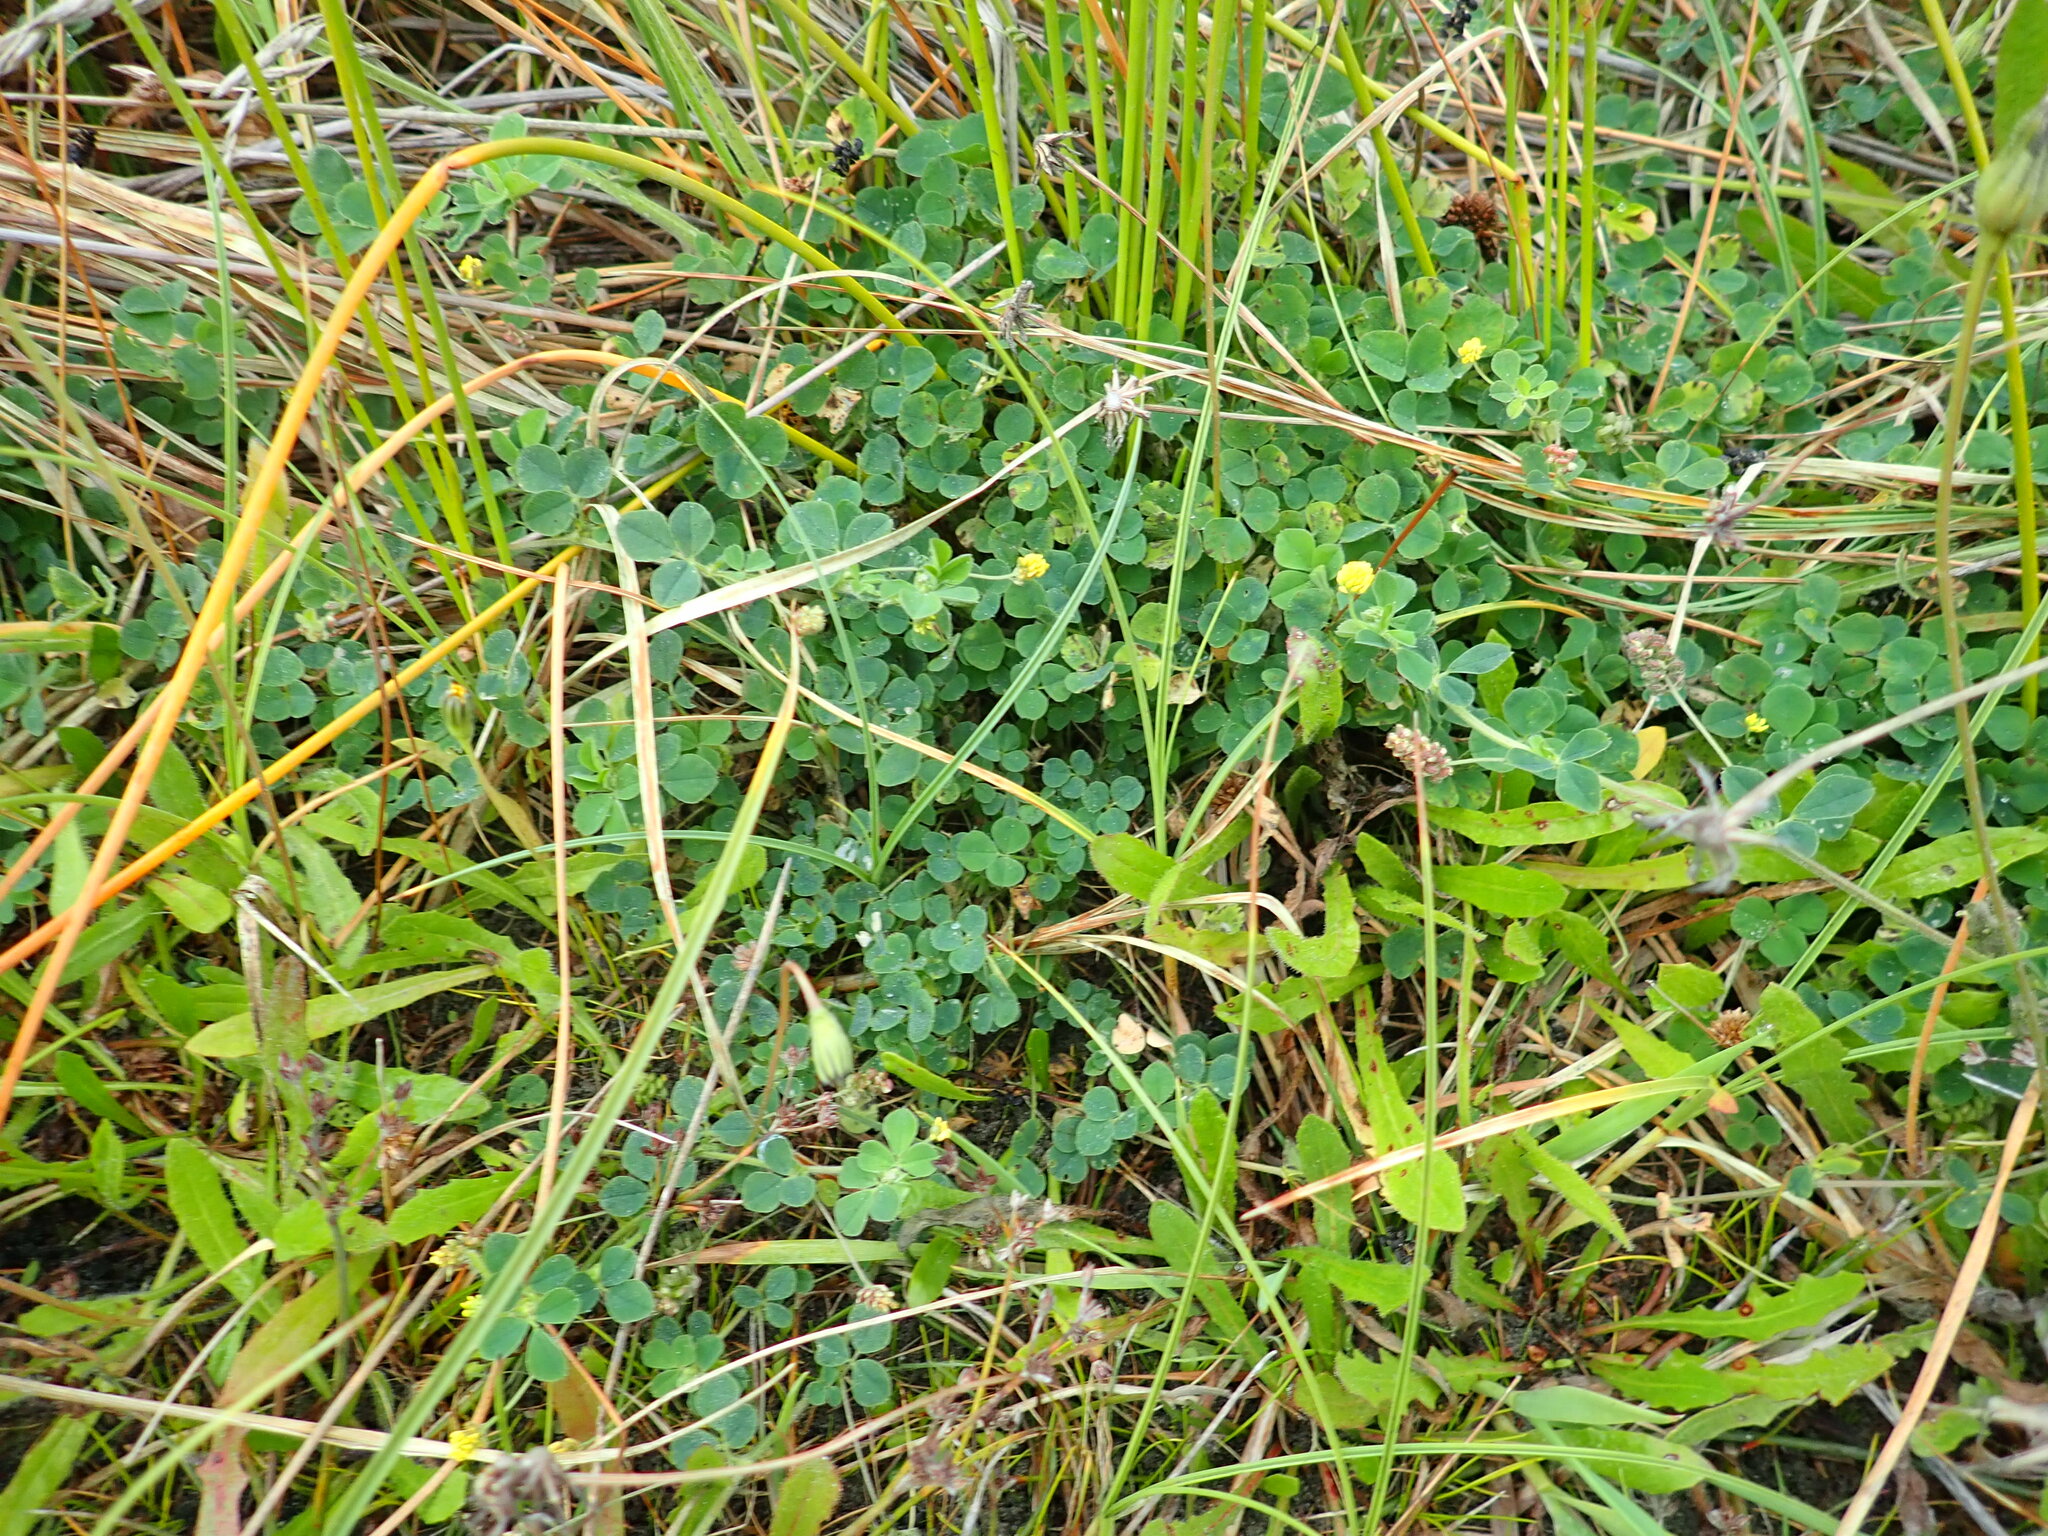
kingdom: Plantae
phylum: Tracheophyta
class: Magnoliopsida
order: Fabales
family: Fabaceae
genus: Medicago
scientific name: Medicago lupulina
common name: Black medick
